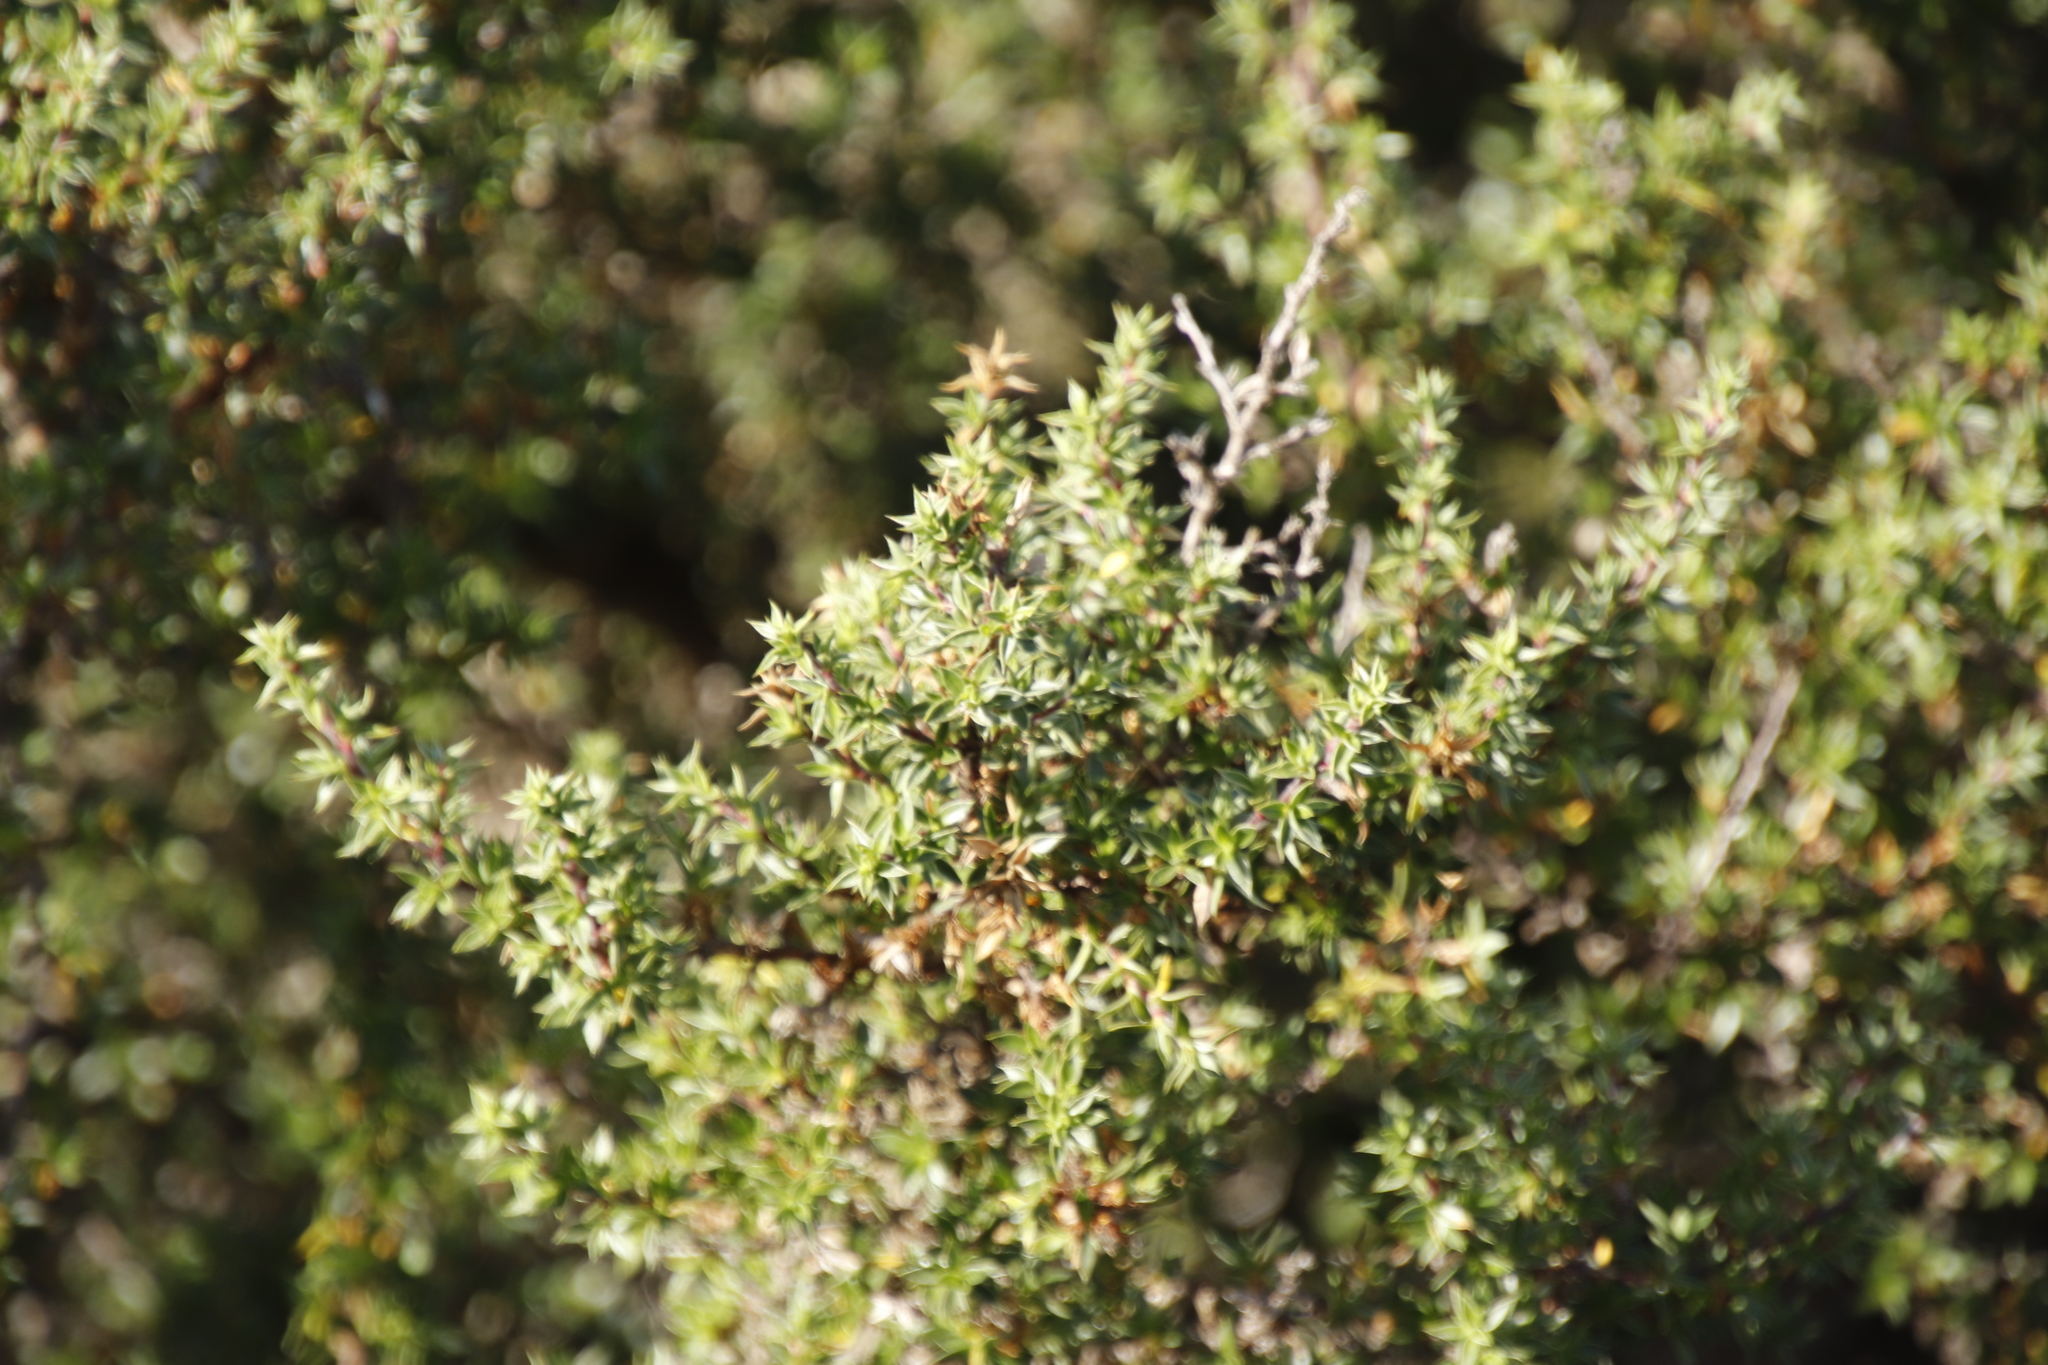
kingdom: Plantae
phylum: Tracheophyta
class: Magnoliopsida
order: Rosales
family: Rosaceae
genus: Cliffortia
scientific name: Cliffortia ruscifolia
